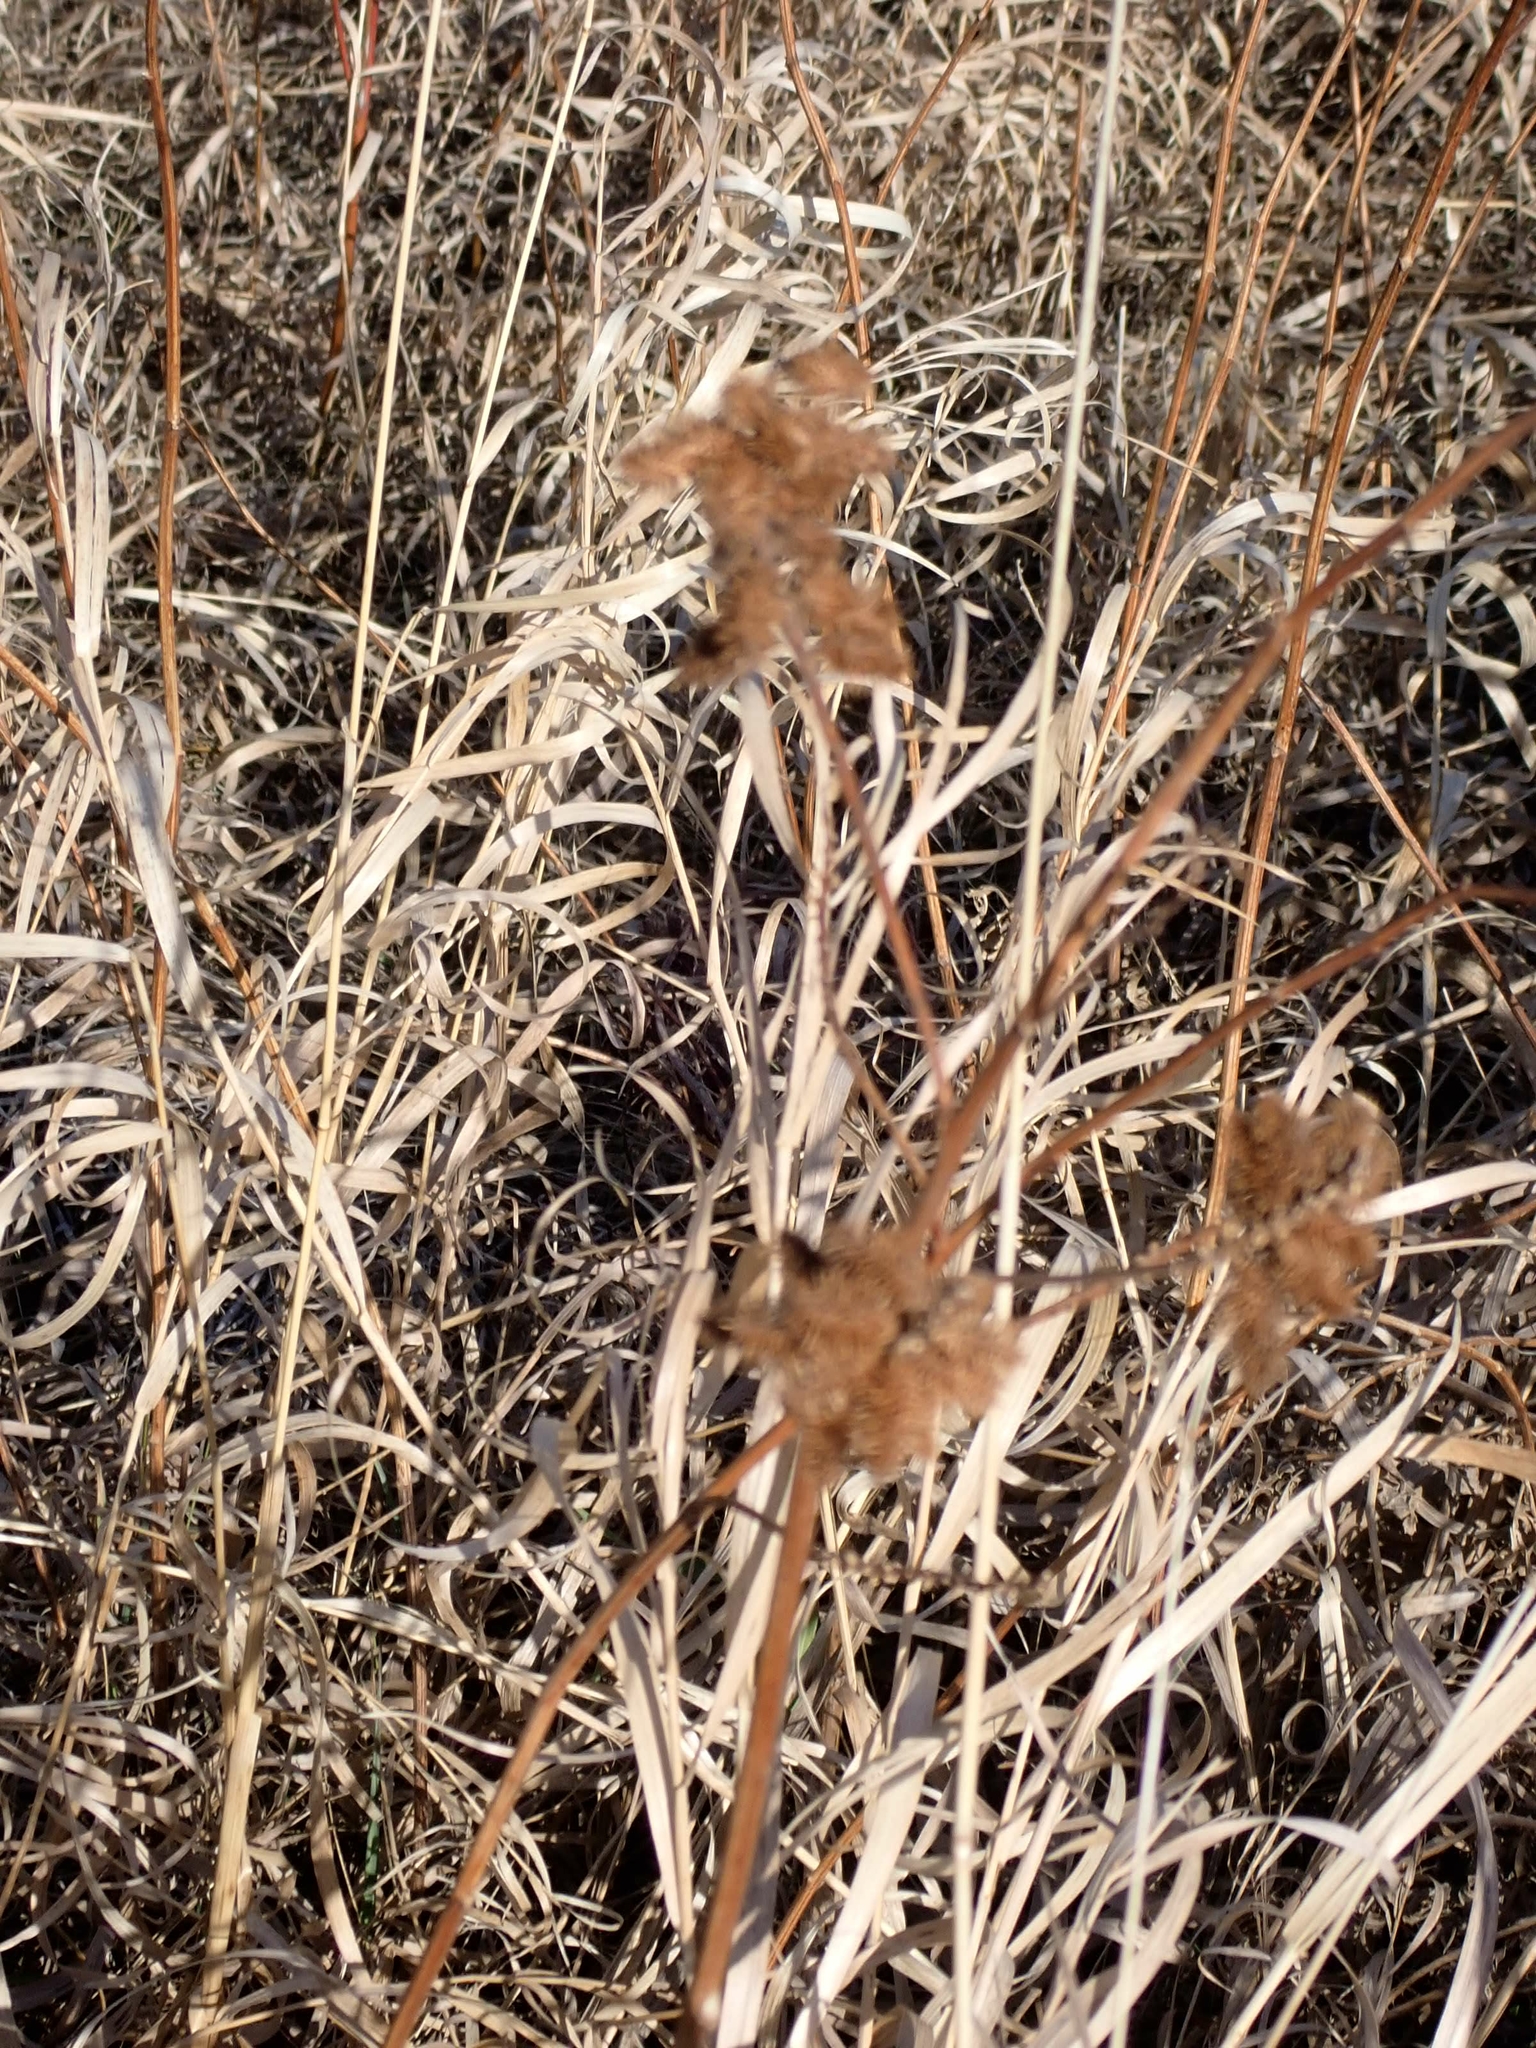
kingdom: Plantae
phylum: Tracheophyta
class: Magnoliopsida
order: Fabales
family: Fabaceae
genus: Glycyrrhiza
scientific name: Glycyrrhiza lepidota
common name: American liquorice
